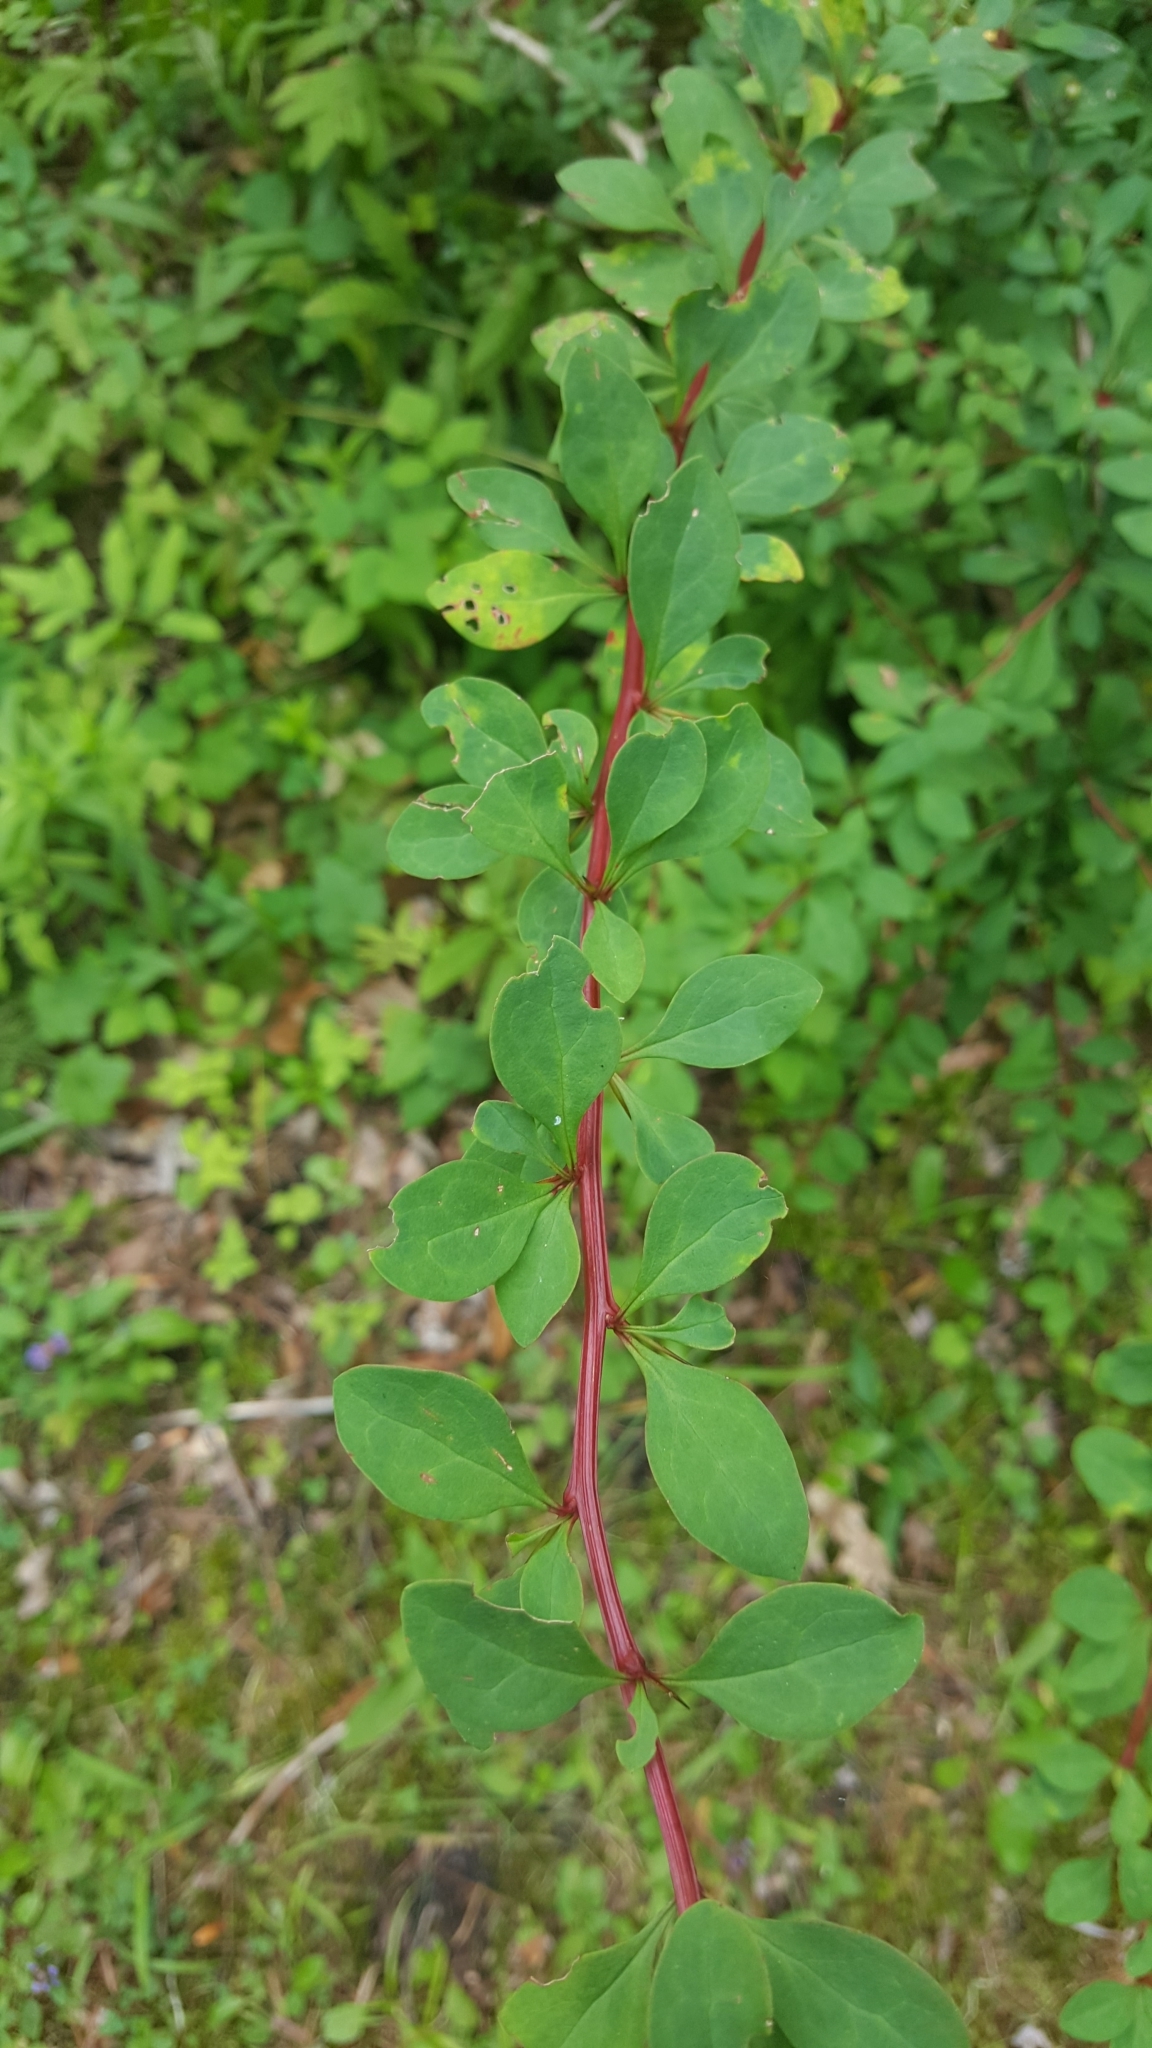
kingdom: Plantae
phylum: Tracheophyta
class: Magnoliopsida
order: Ranunculales
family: Berberidaceae
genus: Berberis
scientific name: Berberis thunbergii
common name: Japanese barberry
